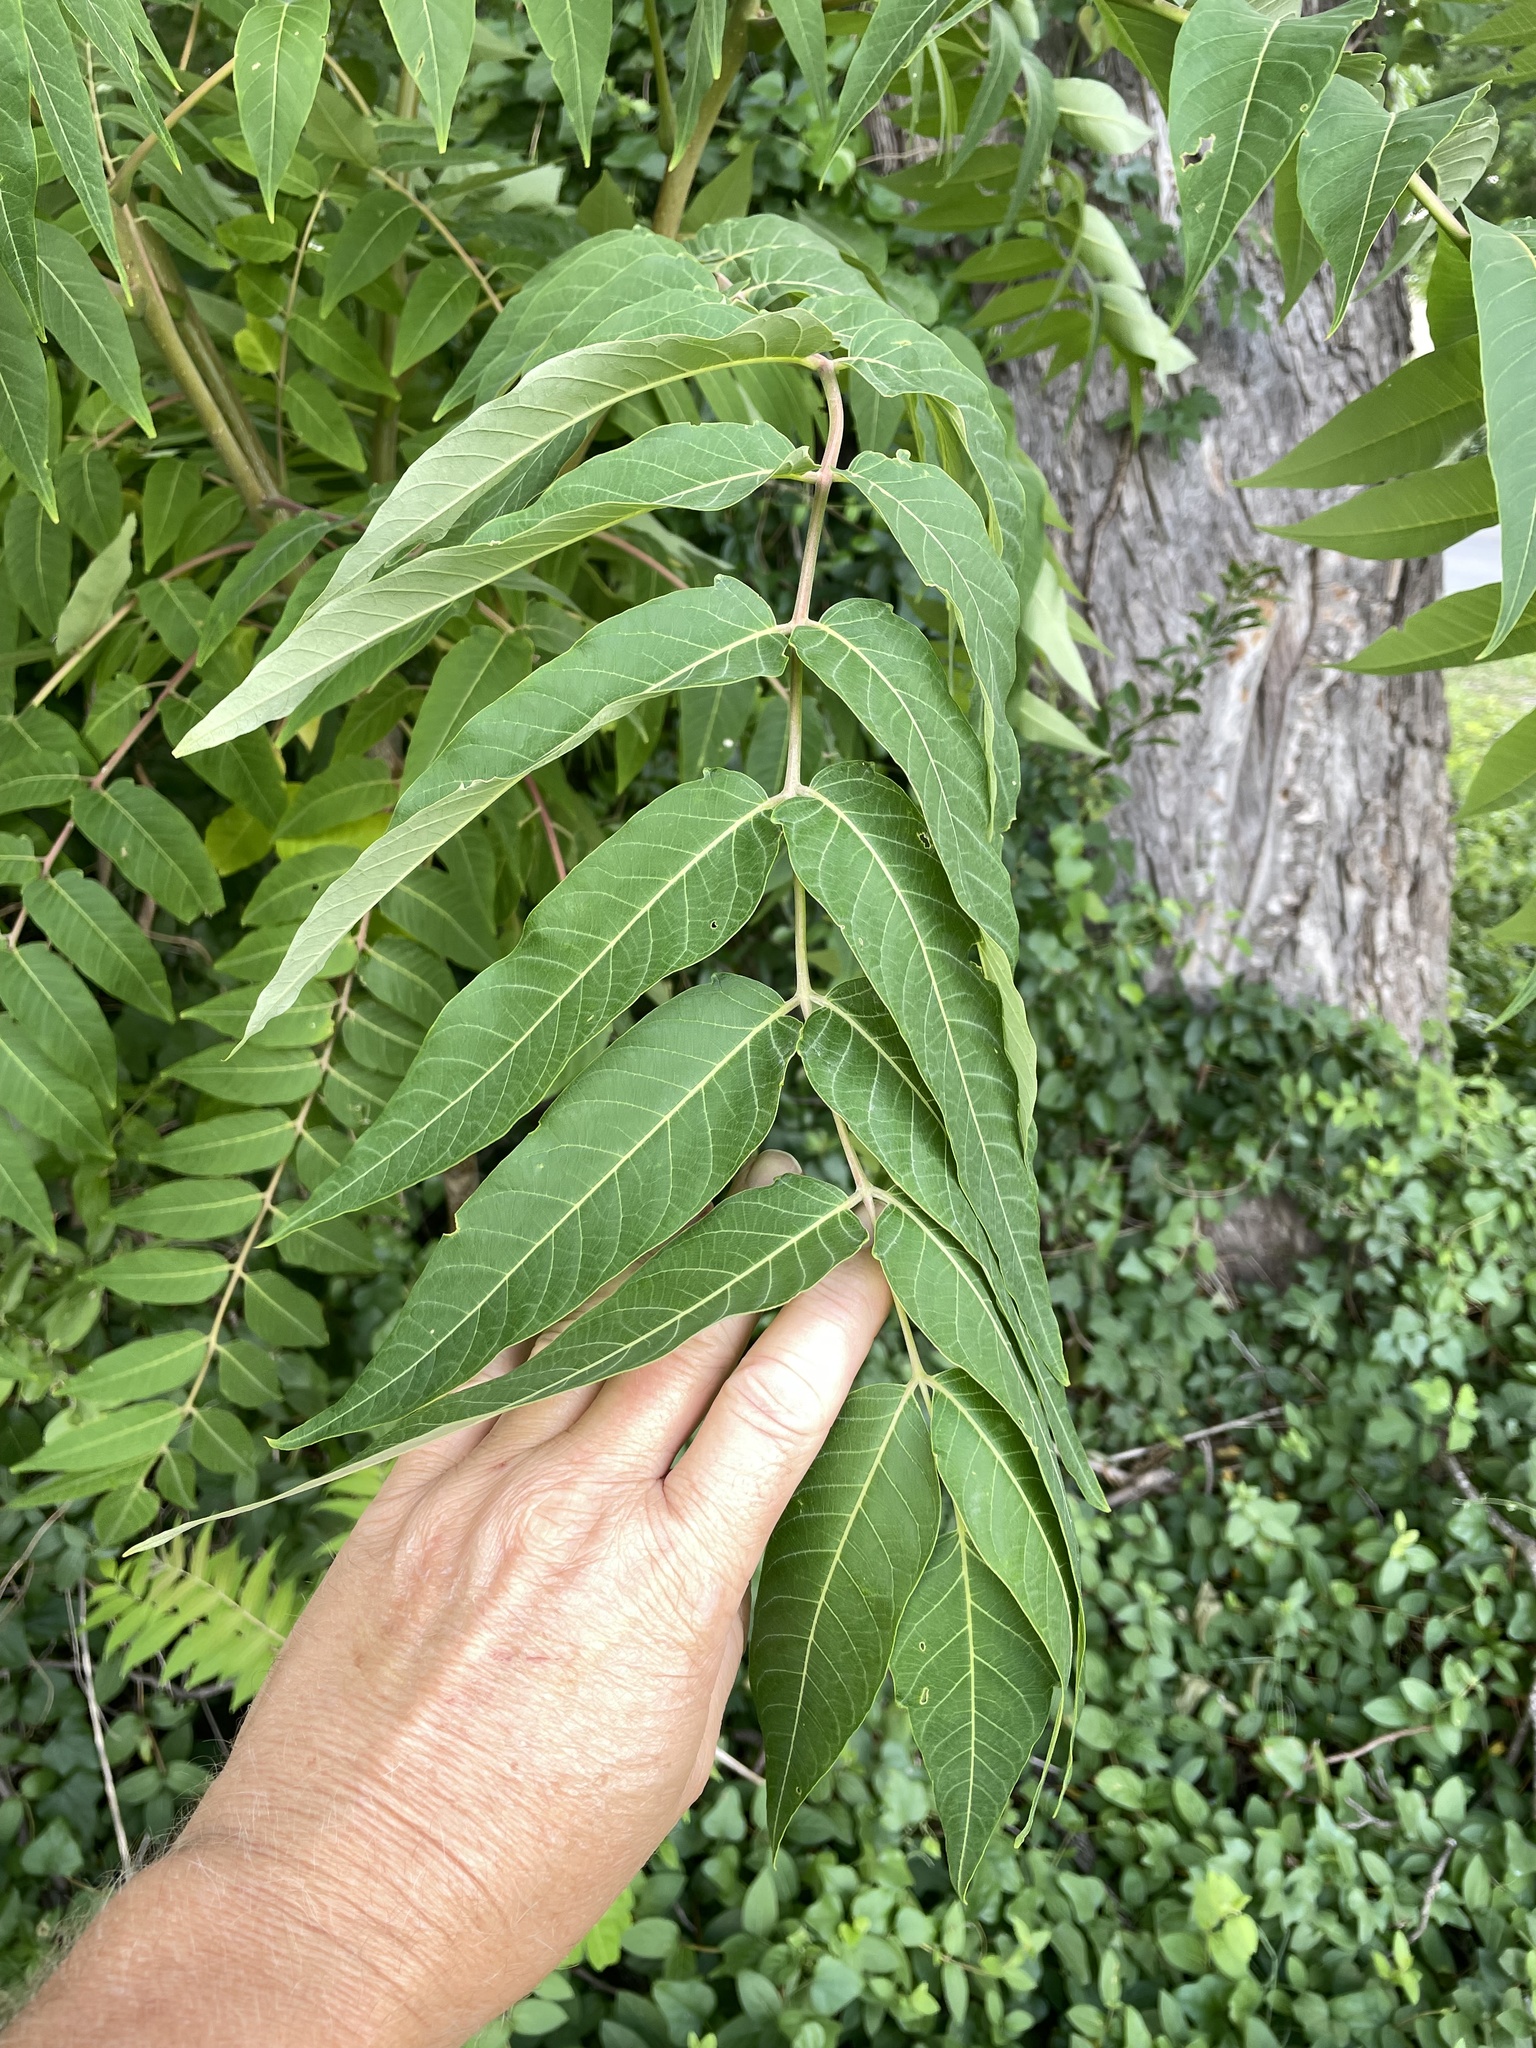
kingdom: Plantae
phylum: Tracheophyta
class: Magnoliopsida
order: Sapindales
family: Simaroubaceae
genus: Ailanthus
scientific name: Ailanthus altissima
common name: Tree-of-heaven
